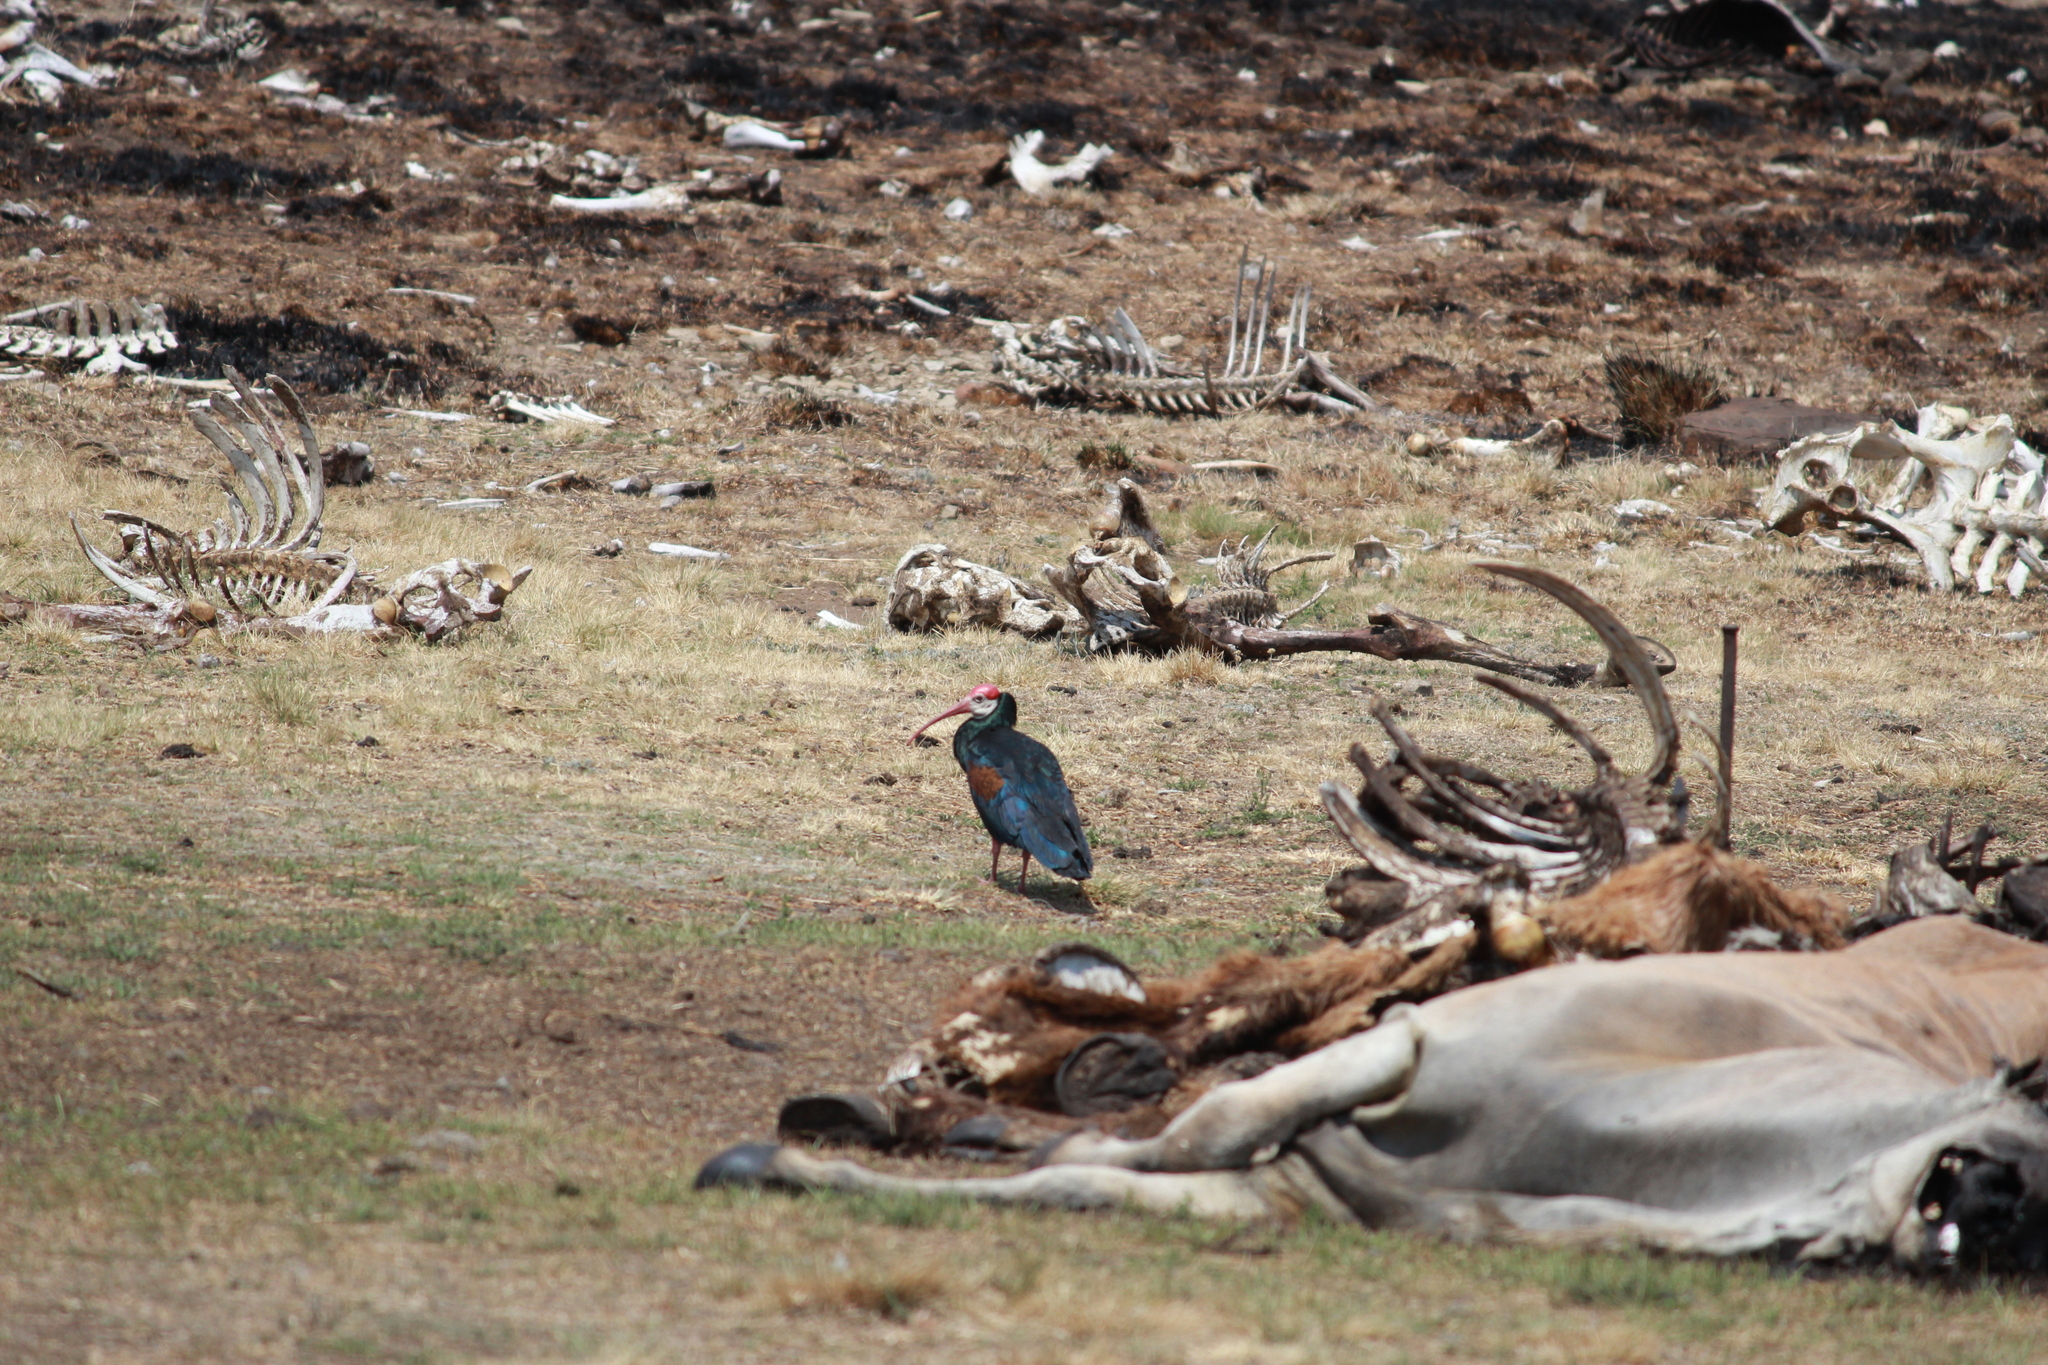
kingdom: Animalia
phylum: Chordata
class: Aves
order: Pelecaniformes
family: Threskiornithidae
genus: Geronticus
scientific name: Geronticus calvus
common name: Southern bald ibis
